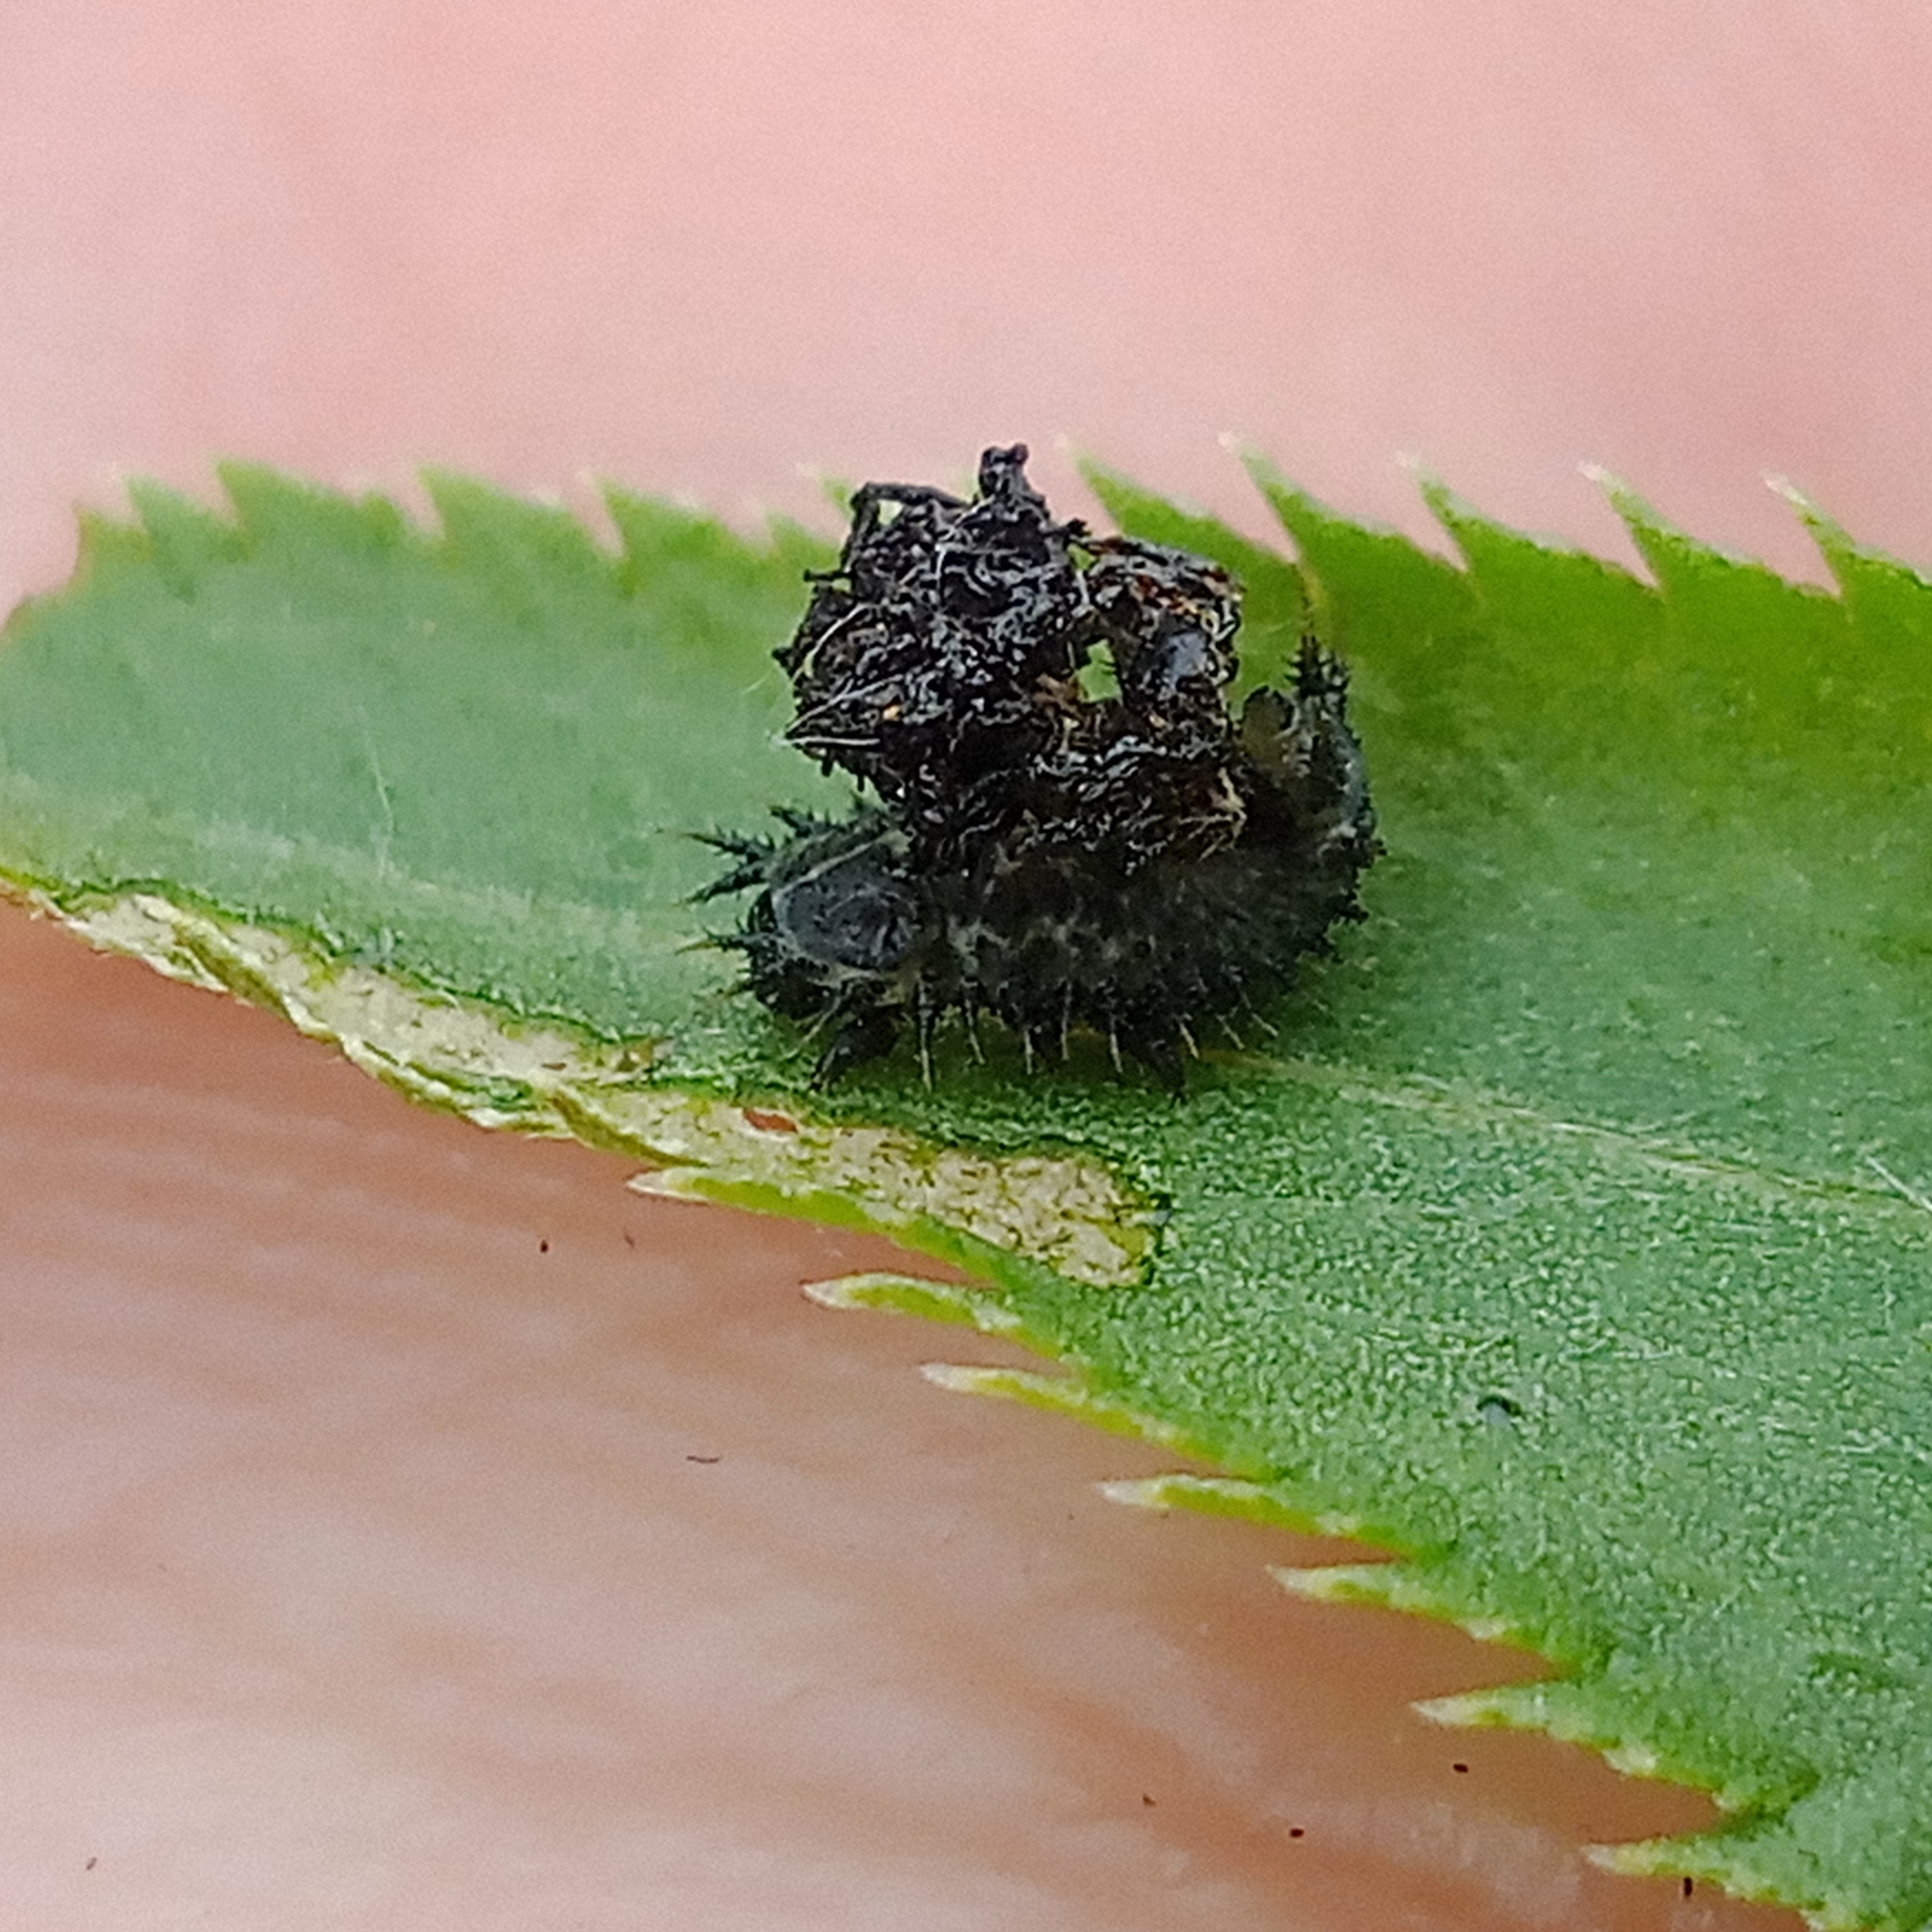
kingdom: Animalia
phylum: Arthropoda
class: Insecta
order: Coleoptera
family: Chrysomelidae
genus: Cassida
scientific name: Cassida sanguinosa
